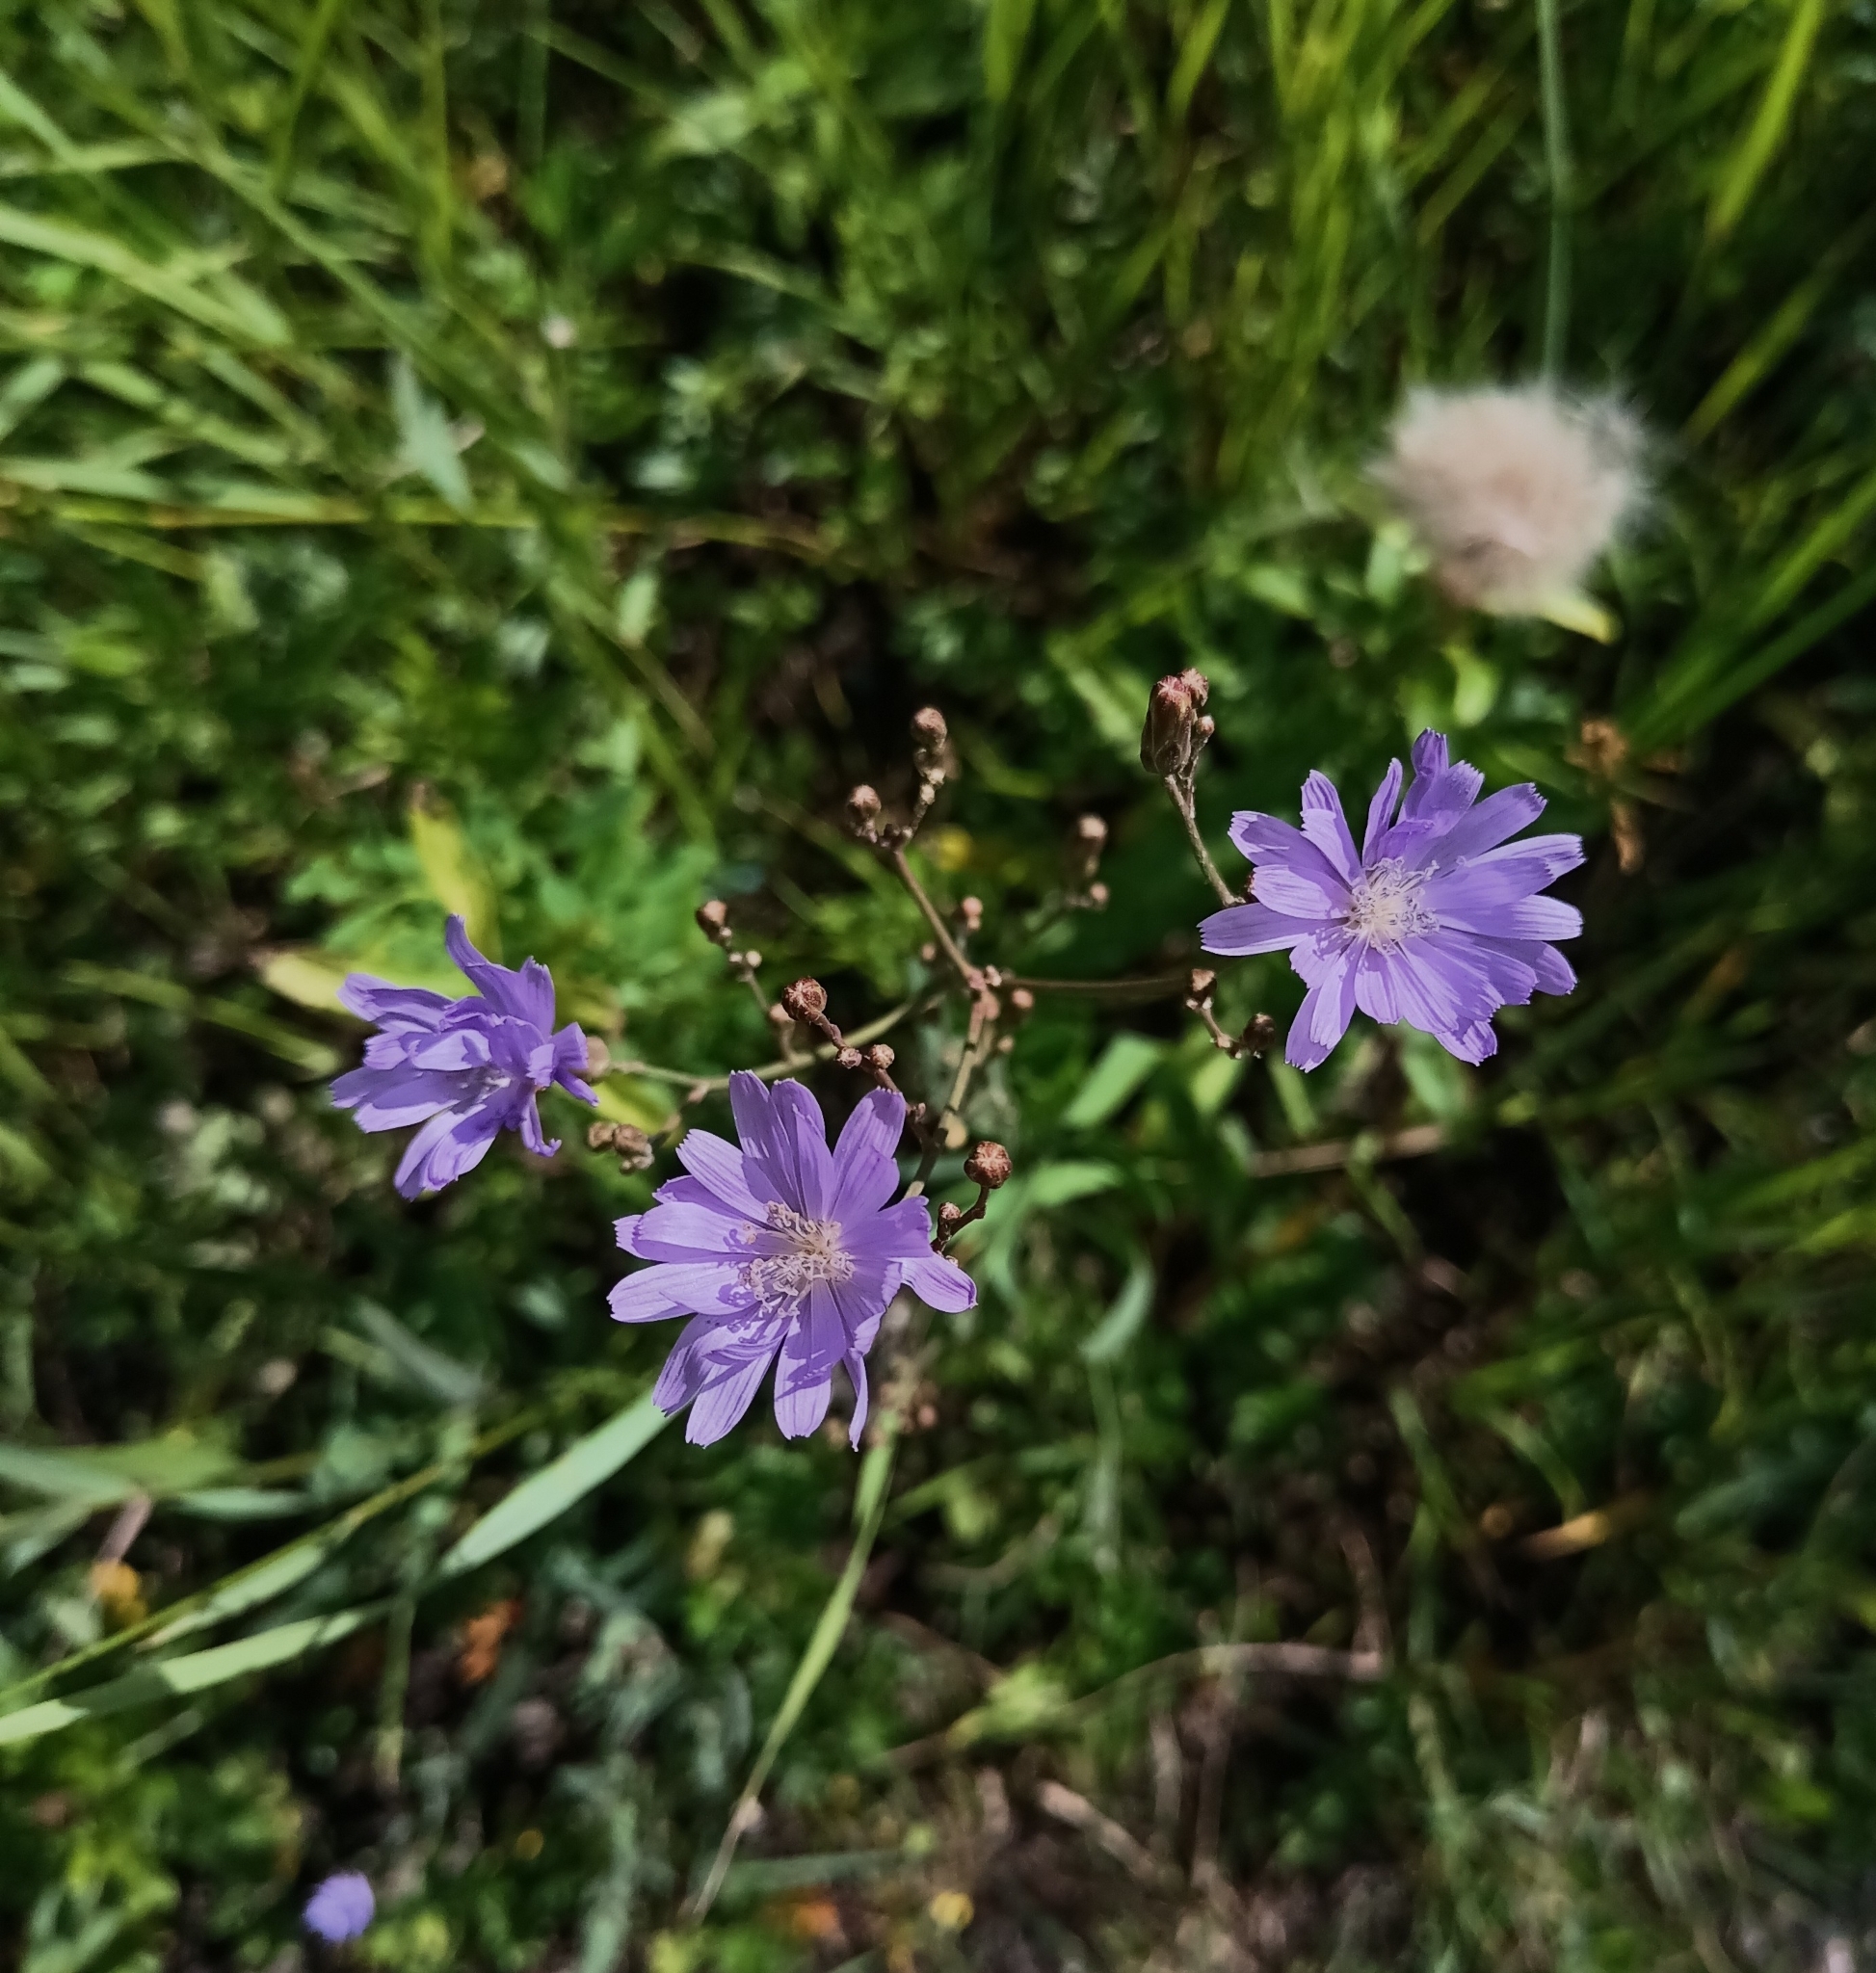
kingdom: Plantae
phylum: Tracheophyta
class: Magnoliopsida
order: Asterales
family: Asteraceae
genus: Lactuca
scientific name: Lactuca tatarica
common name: Blue lettuce
